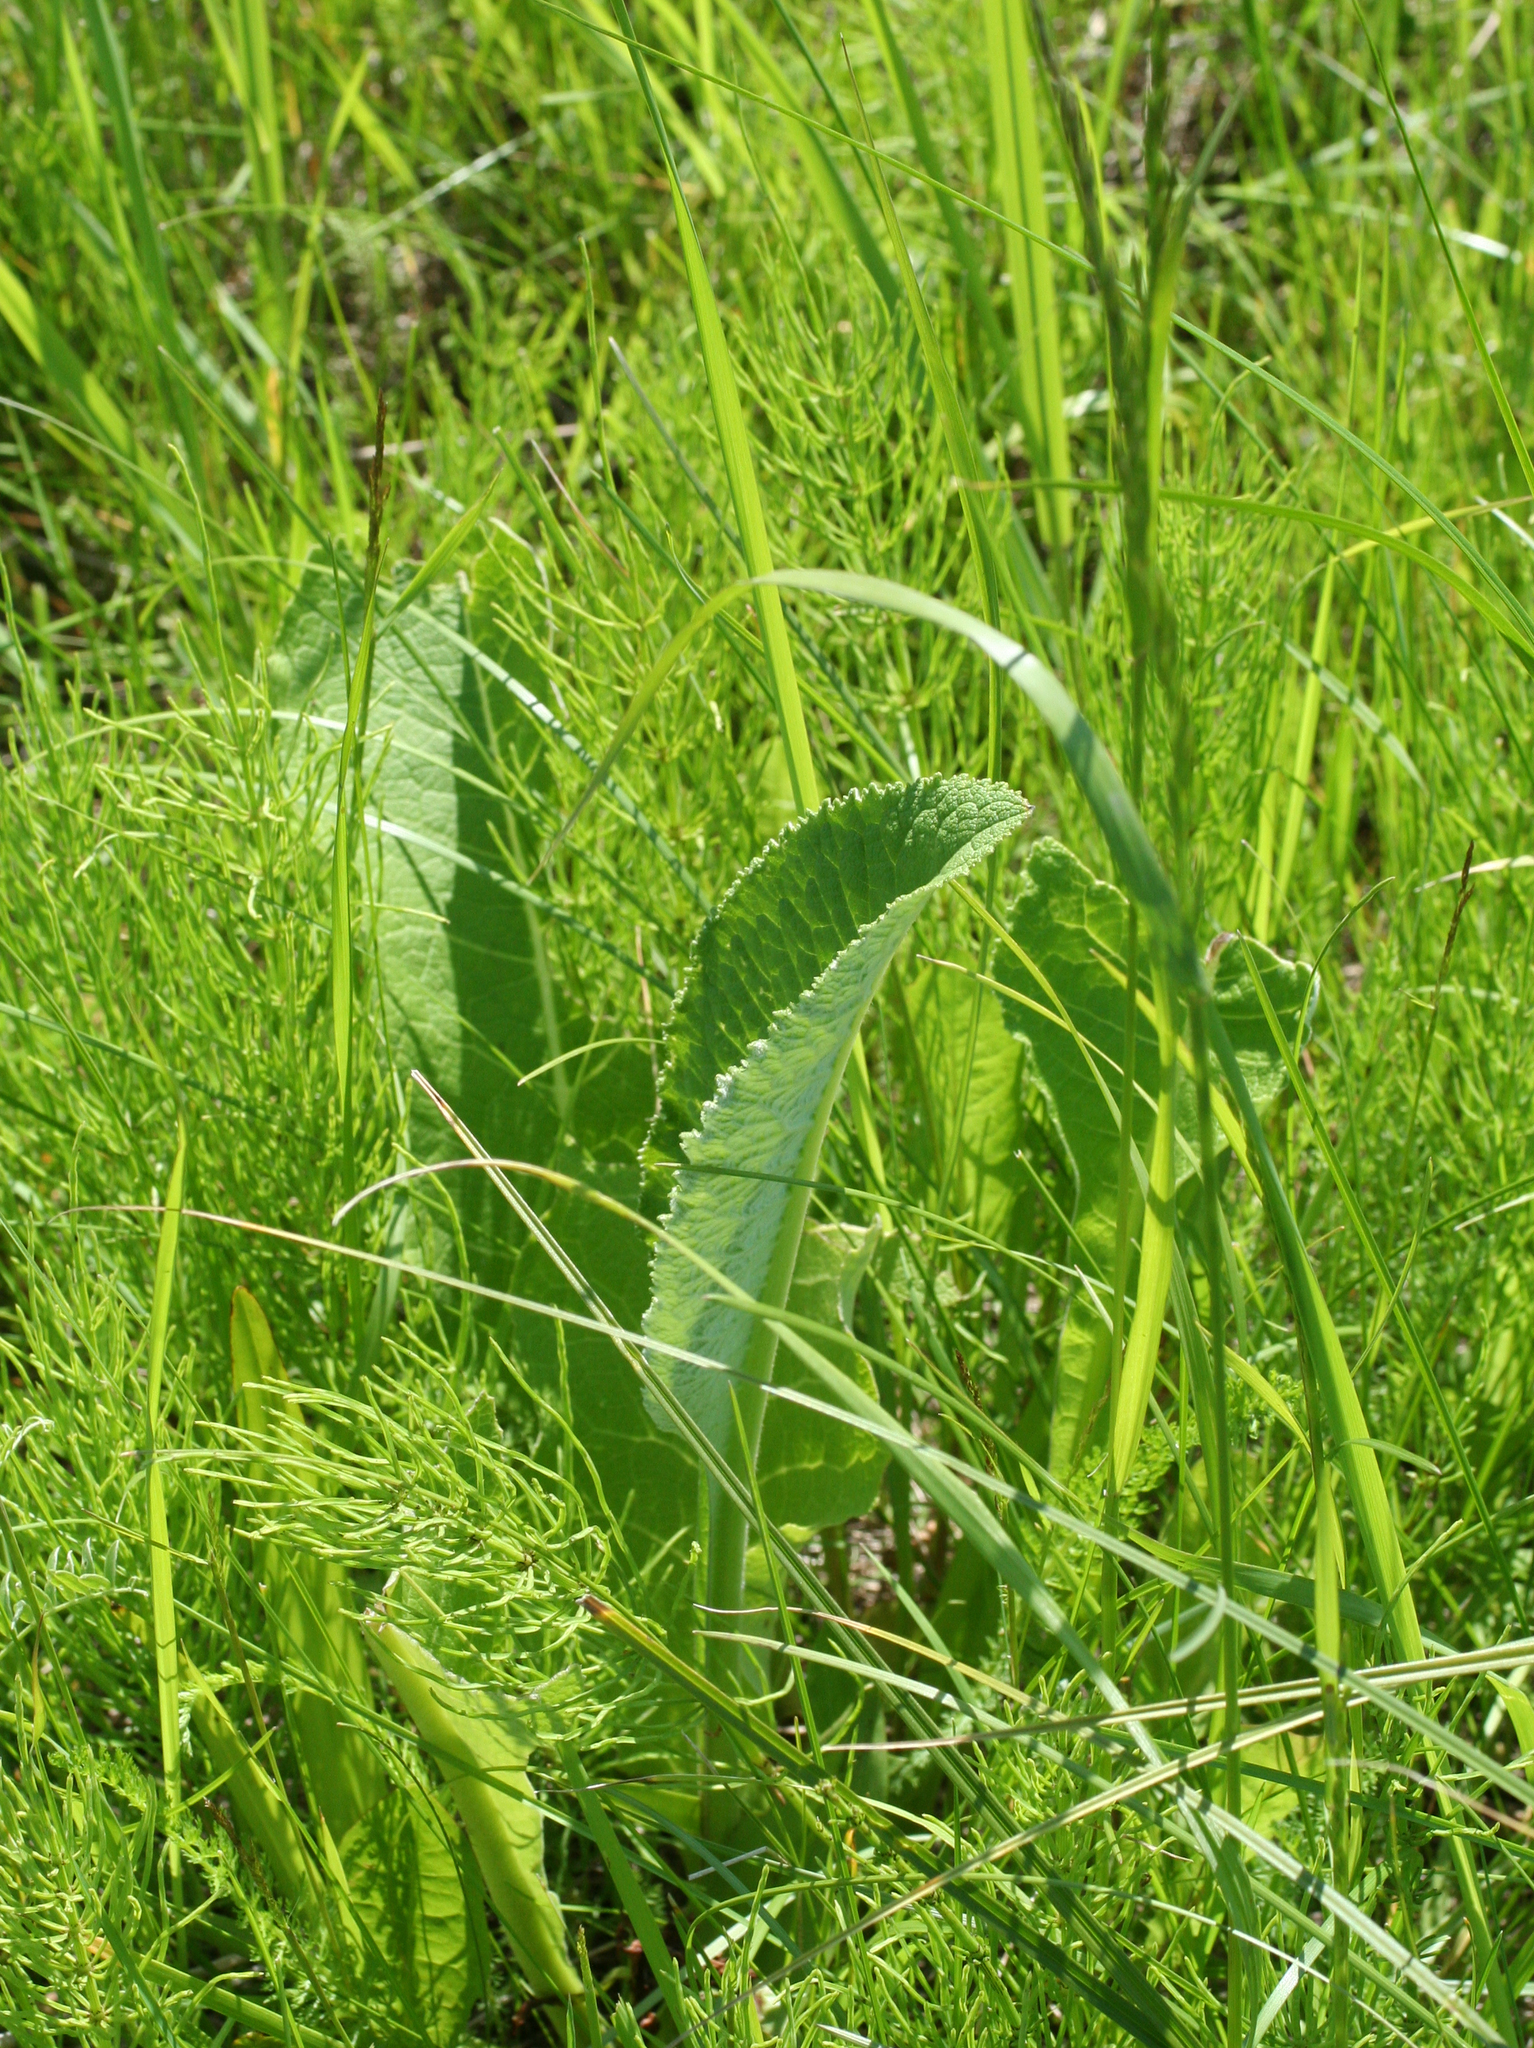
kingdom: Plantae
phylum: Tracheophyta
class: Magnoliopsida
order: Asterales
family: Asteraceae
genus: Inula
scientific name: Inula helenium
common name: Elecampane
